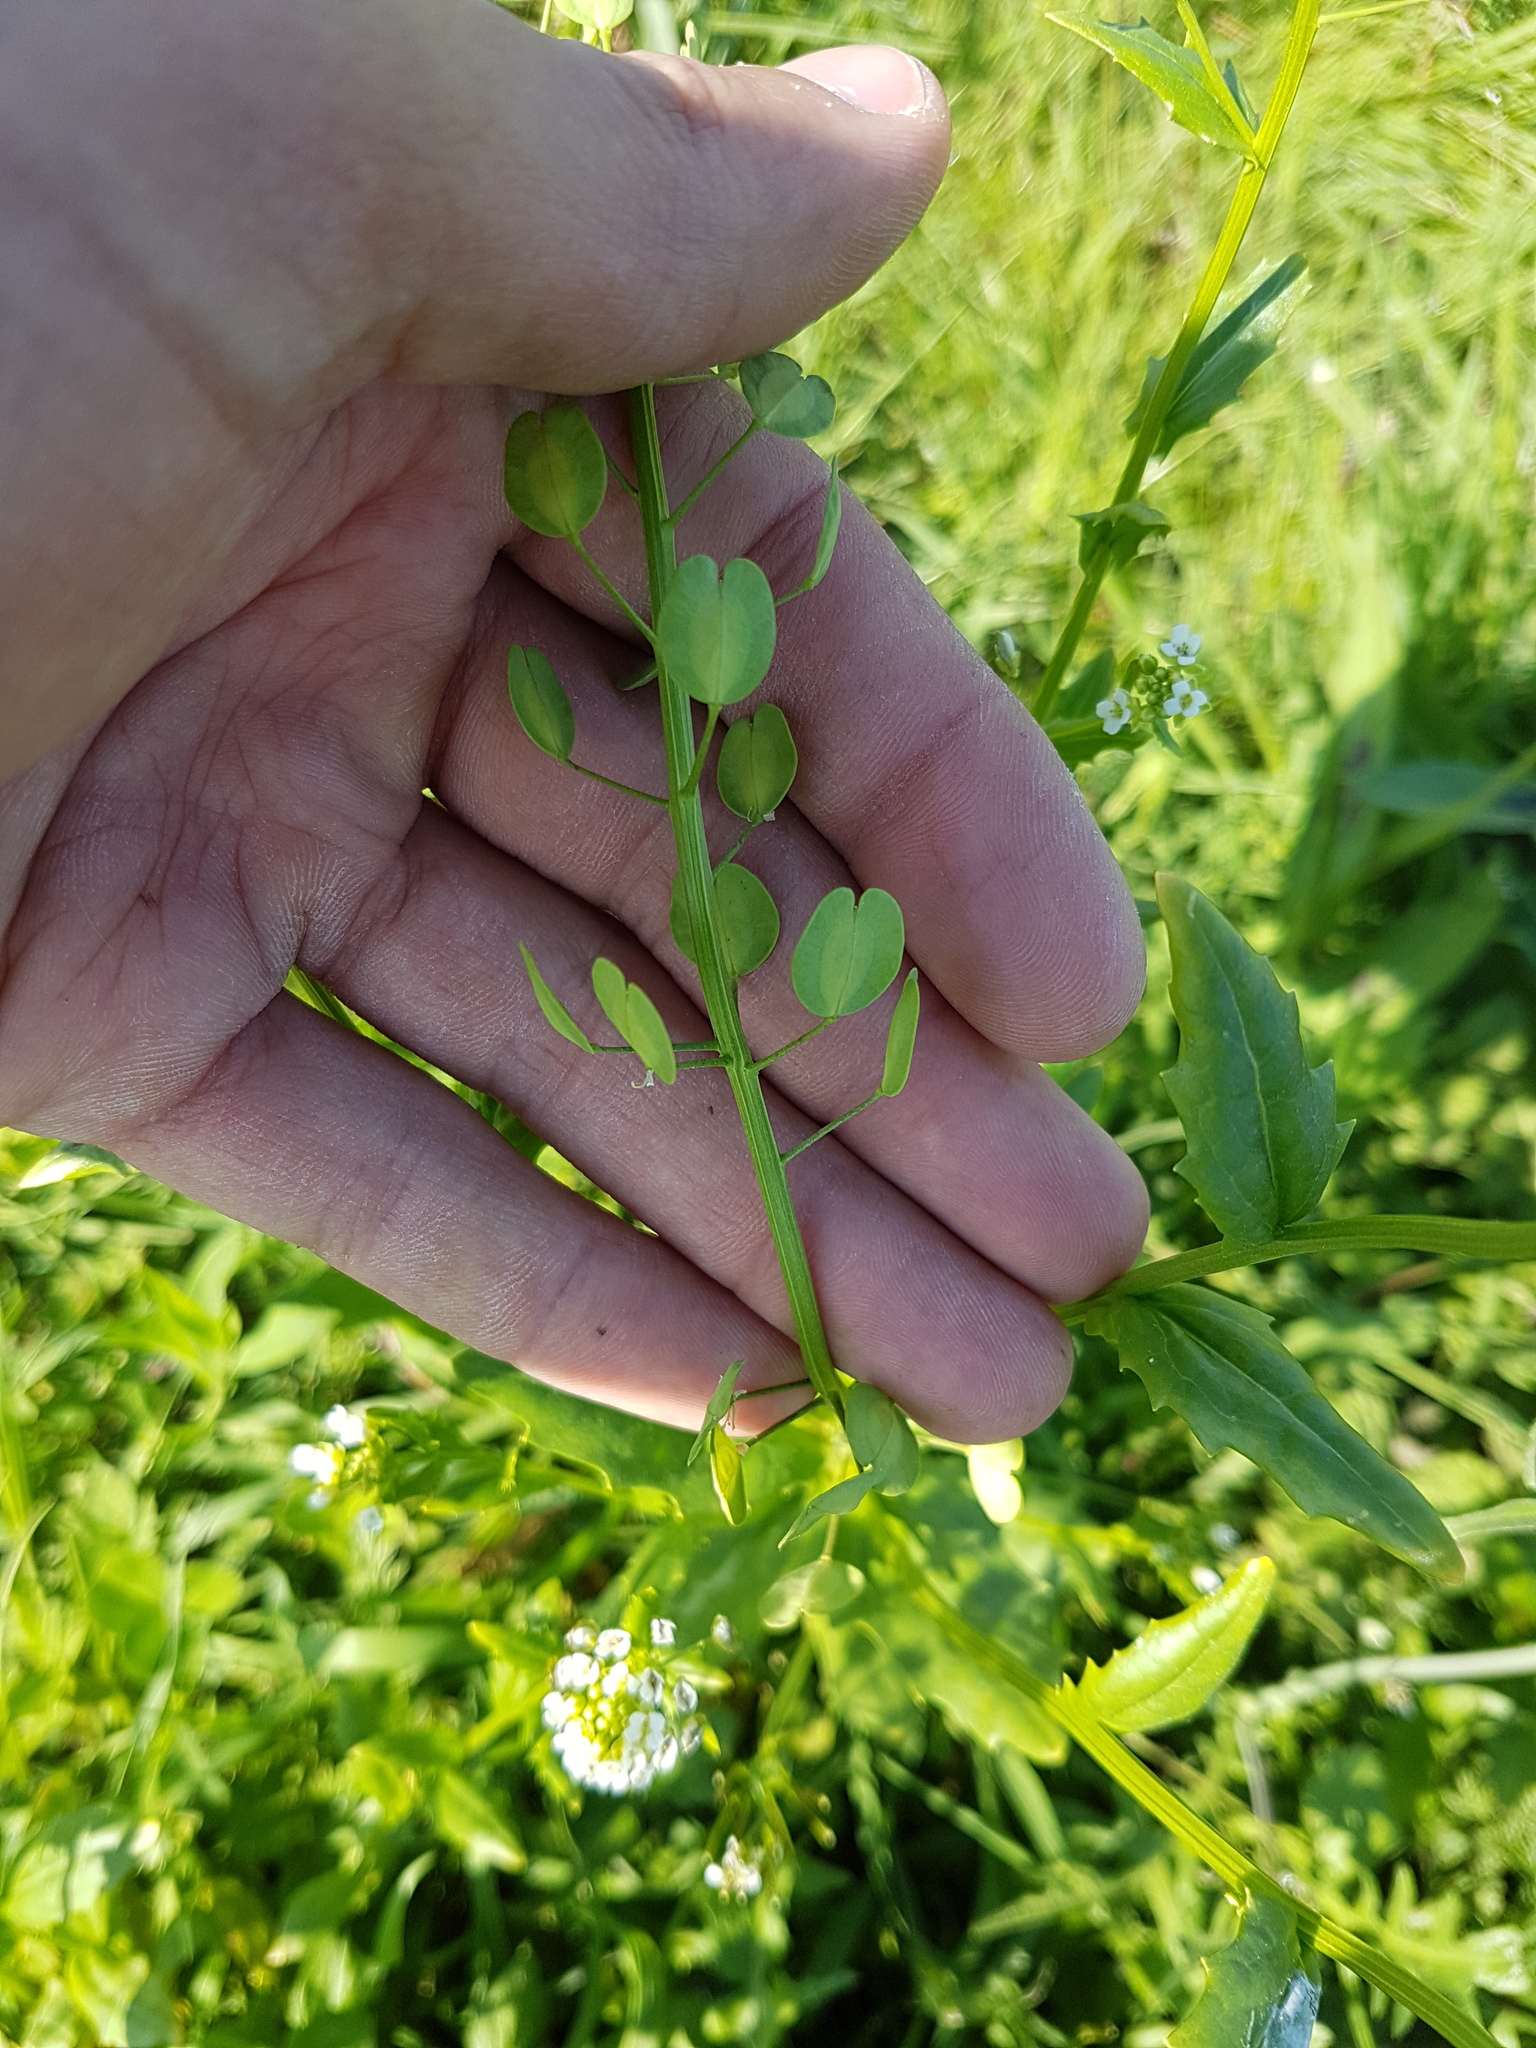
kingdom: Plantae
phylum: Tracheophyta
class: Magnoliopsida
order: Brassicales
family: Brassicaceae
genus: Thlaspi
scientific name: Thlaspi arvense
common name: Field pennycress
